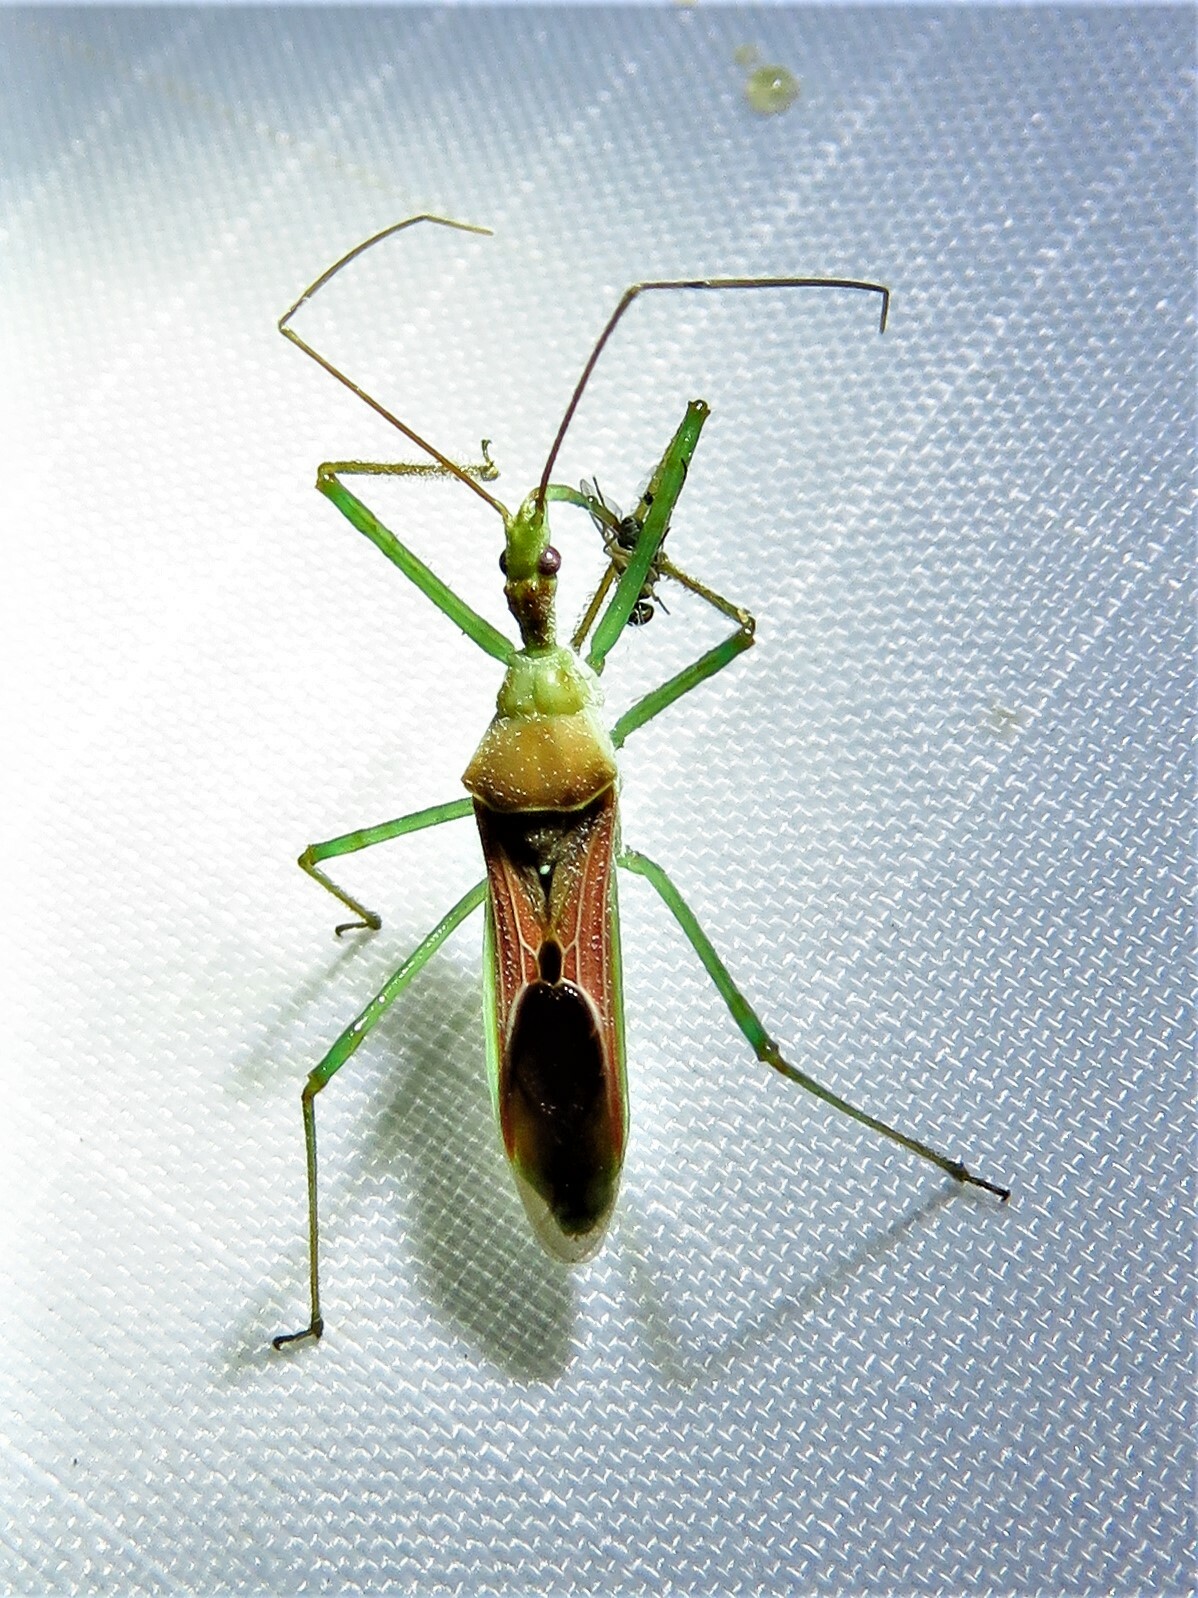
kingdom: Animalia
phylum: Arthropoda
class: Insecta
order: Hemiptera
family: Reduviidae
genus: Zelus
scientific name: Zelus renardii
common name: Assassin bug
